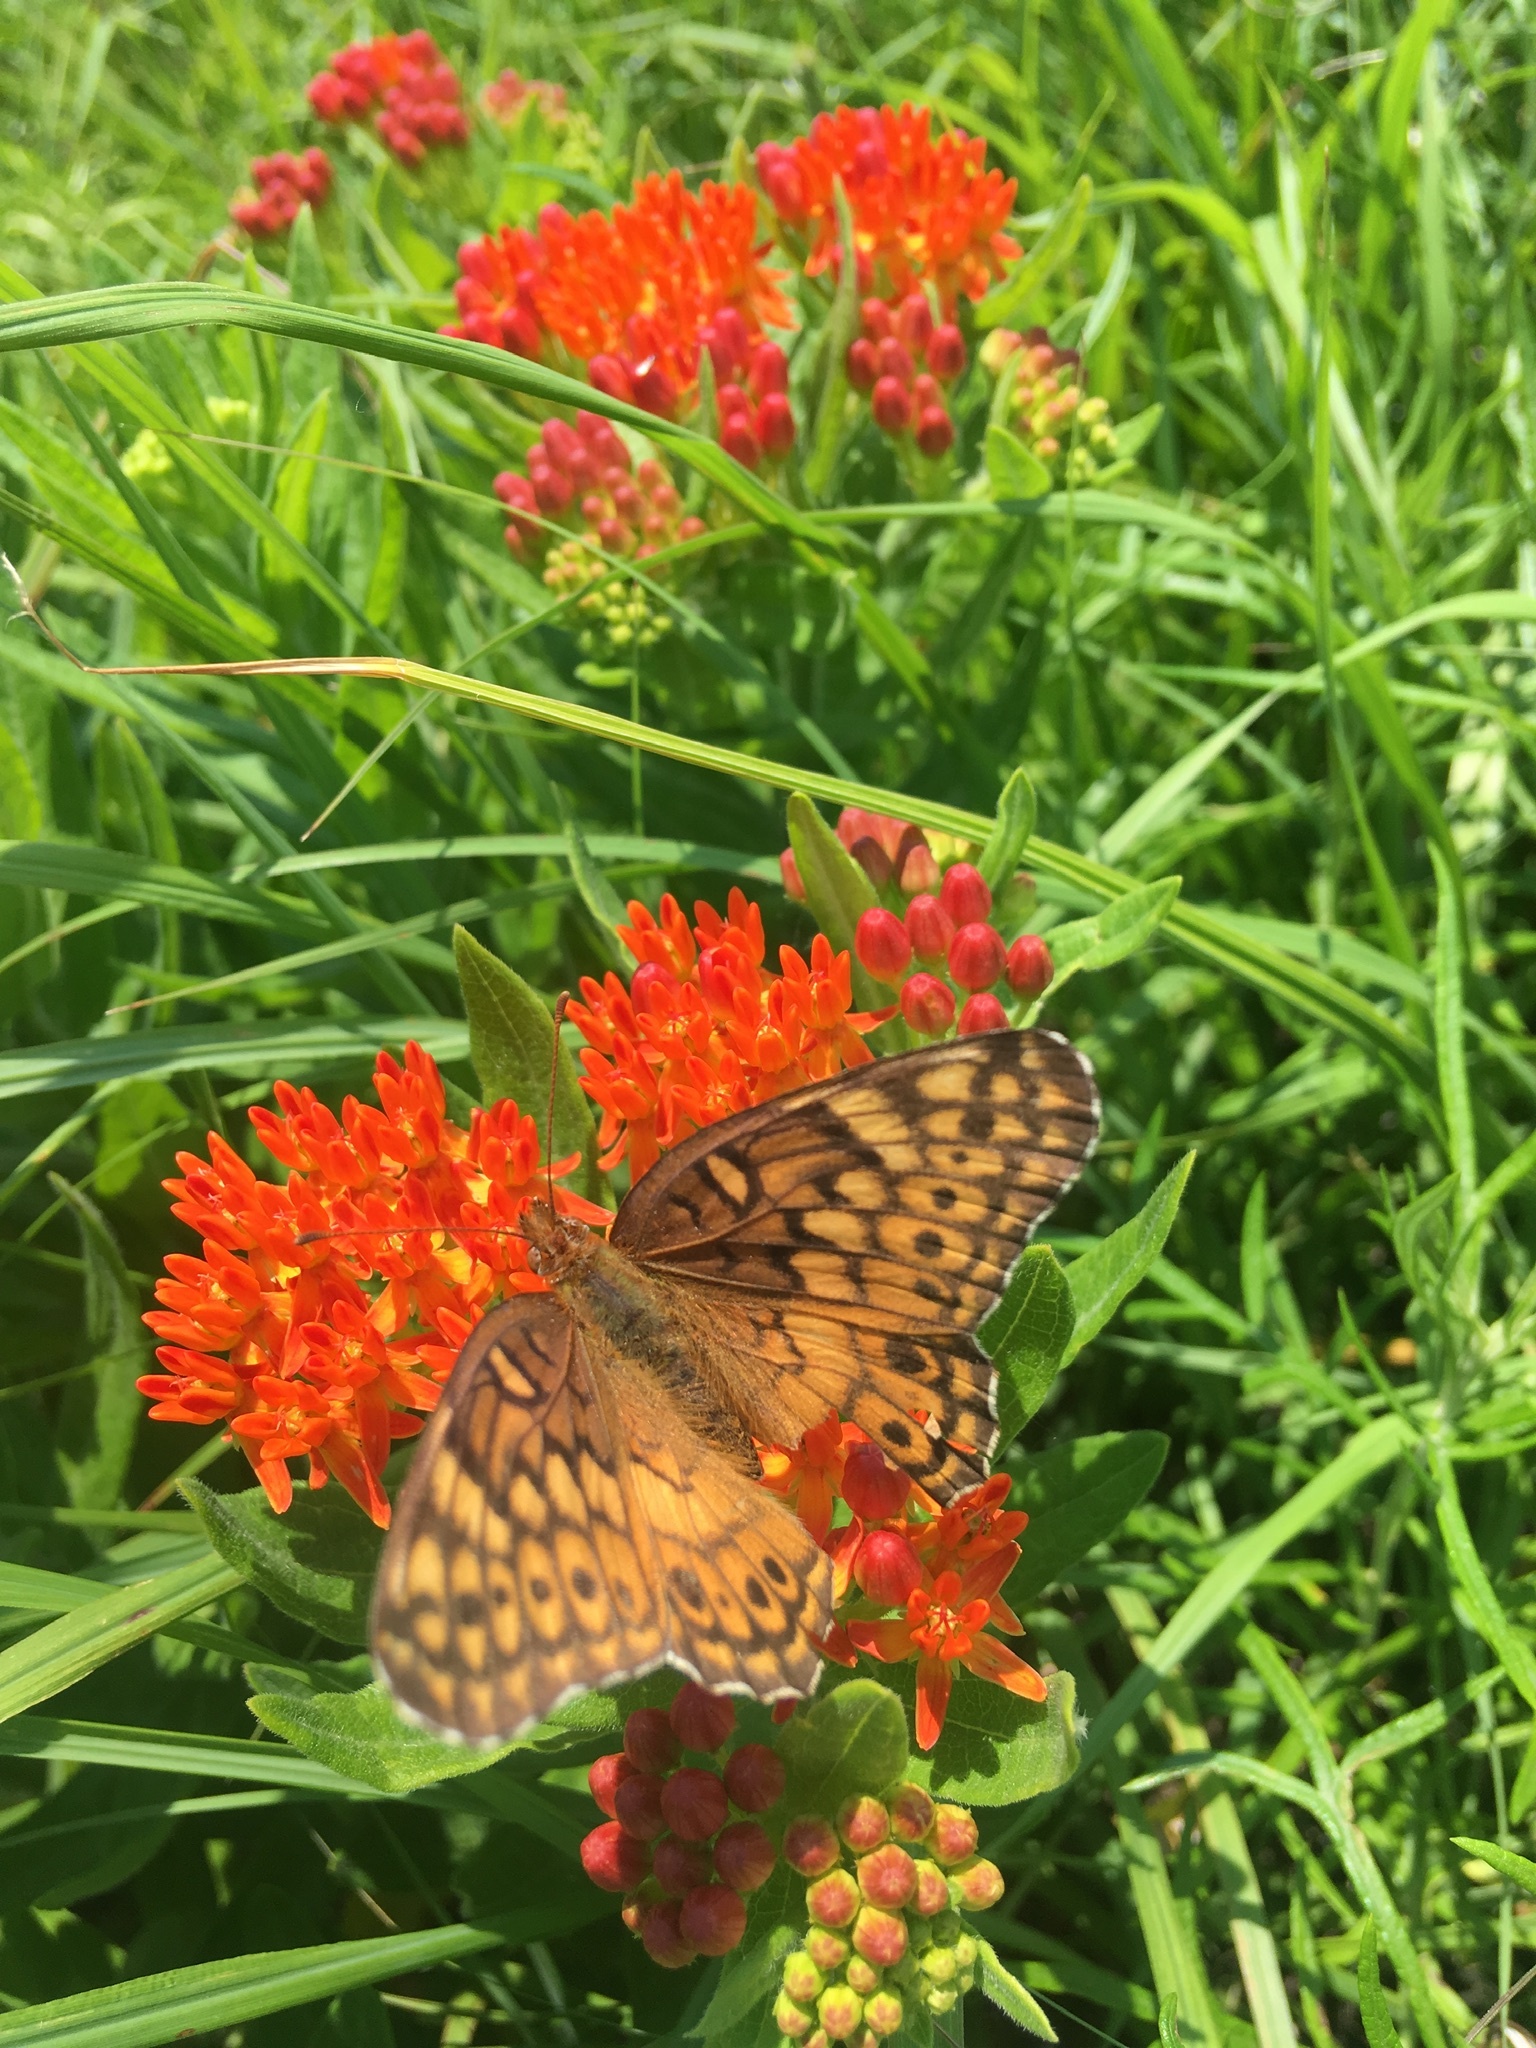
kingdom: Animalia
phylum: Arthropoda
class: Insecta
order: Lepidoptera
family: Nymphalidae
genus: Euptoieta
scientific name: Euptoieta claudia
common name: Variegated fritillary
